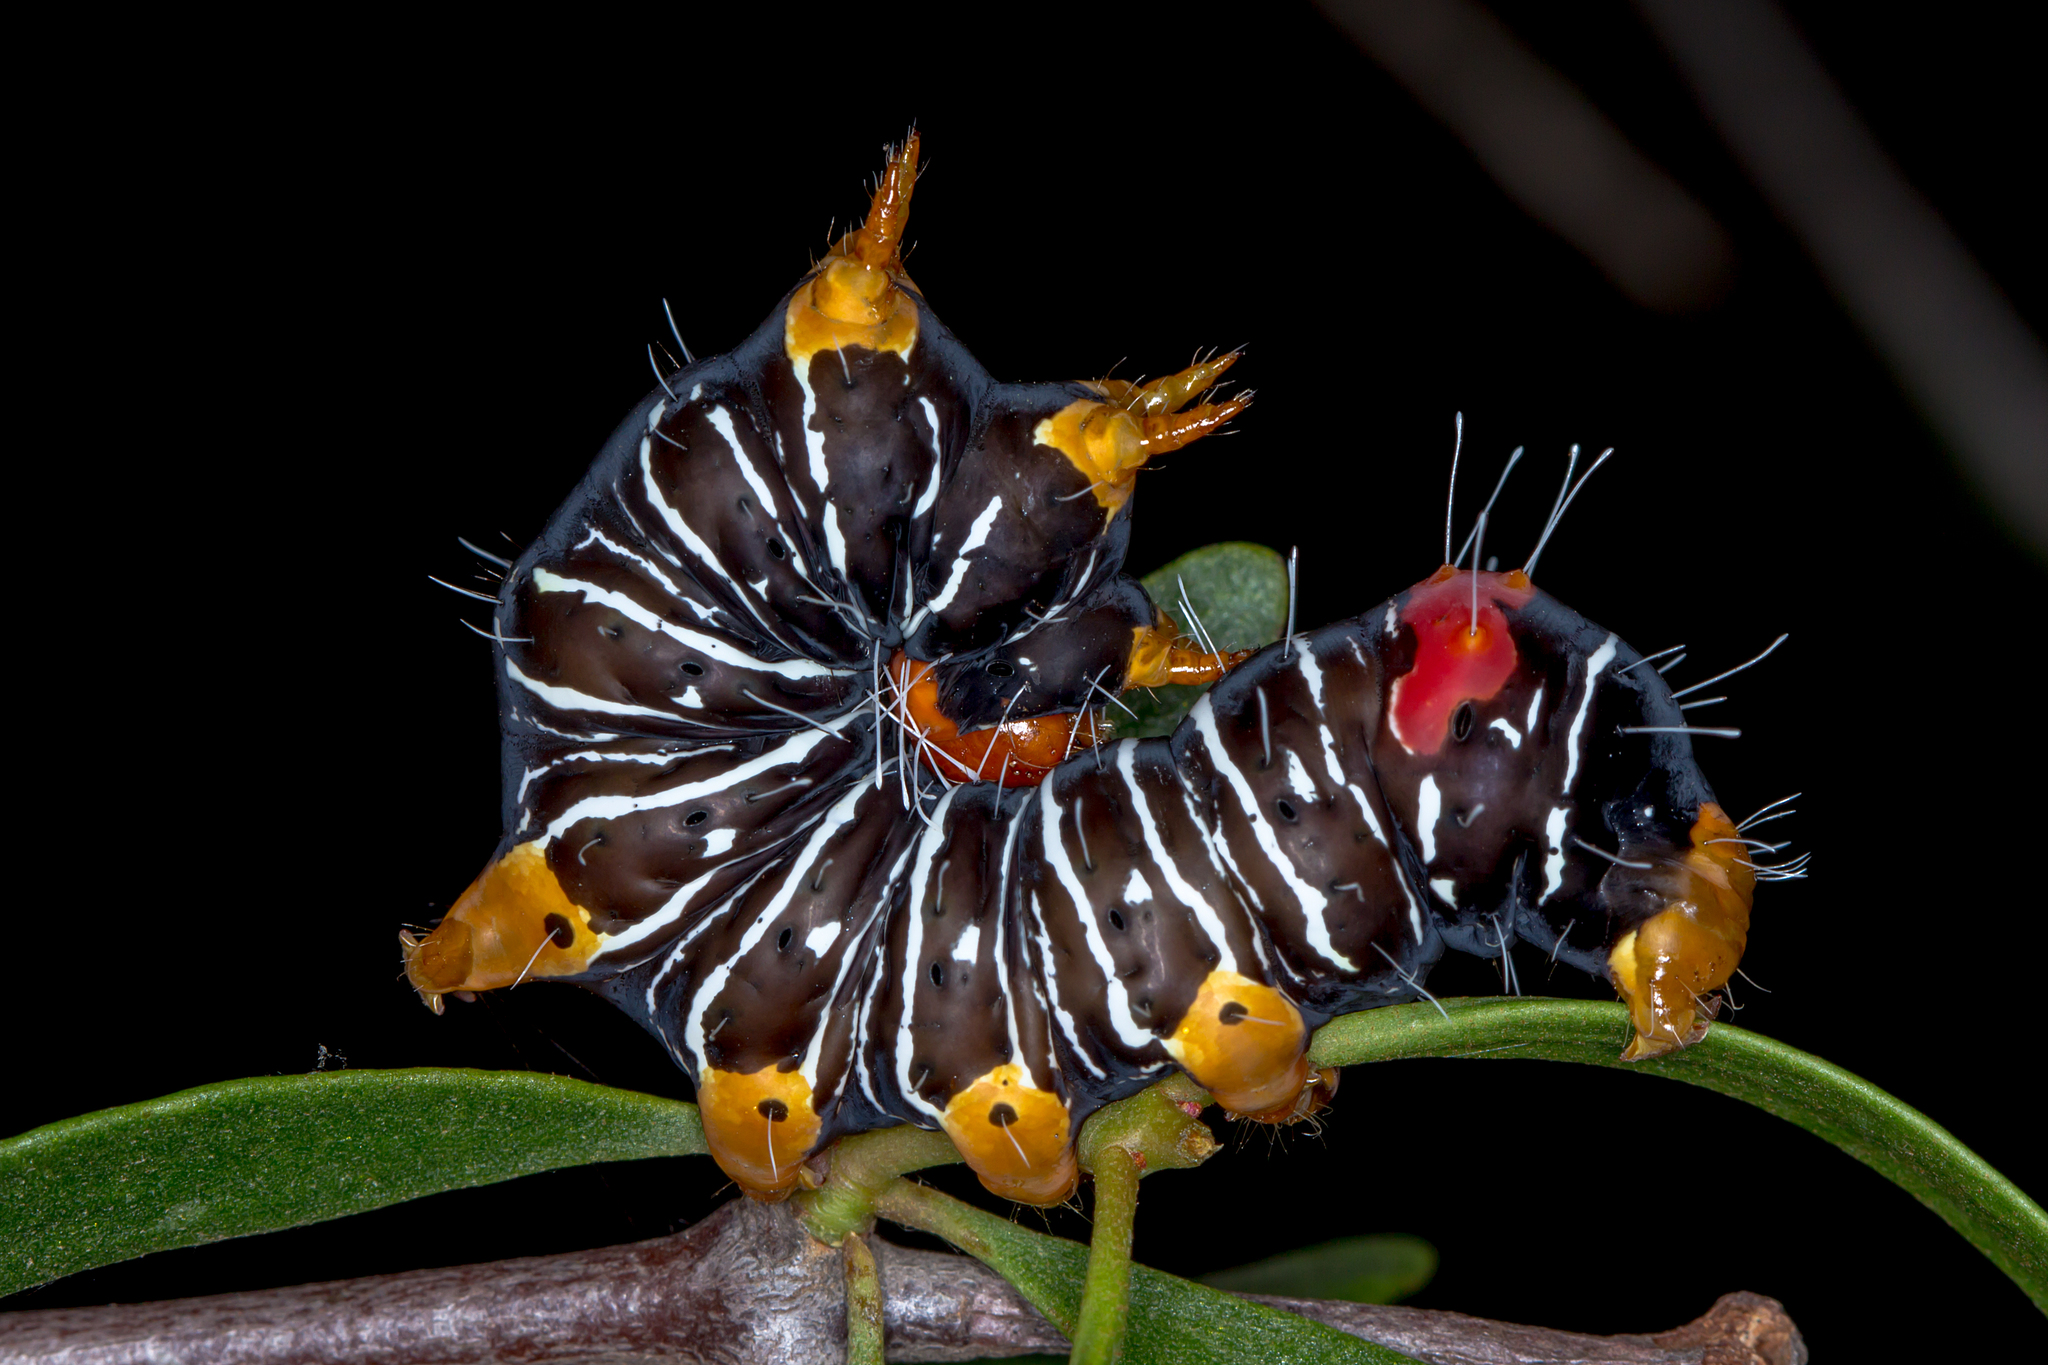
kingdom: Animalia
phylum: Arthropoda
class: Insecta
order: Lepidoptera
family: Noctuidae
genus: Comocrus
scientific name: Comocrus behri
